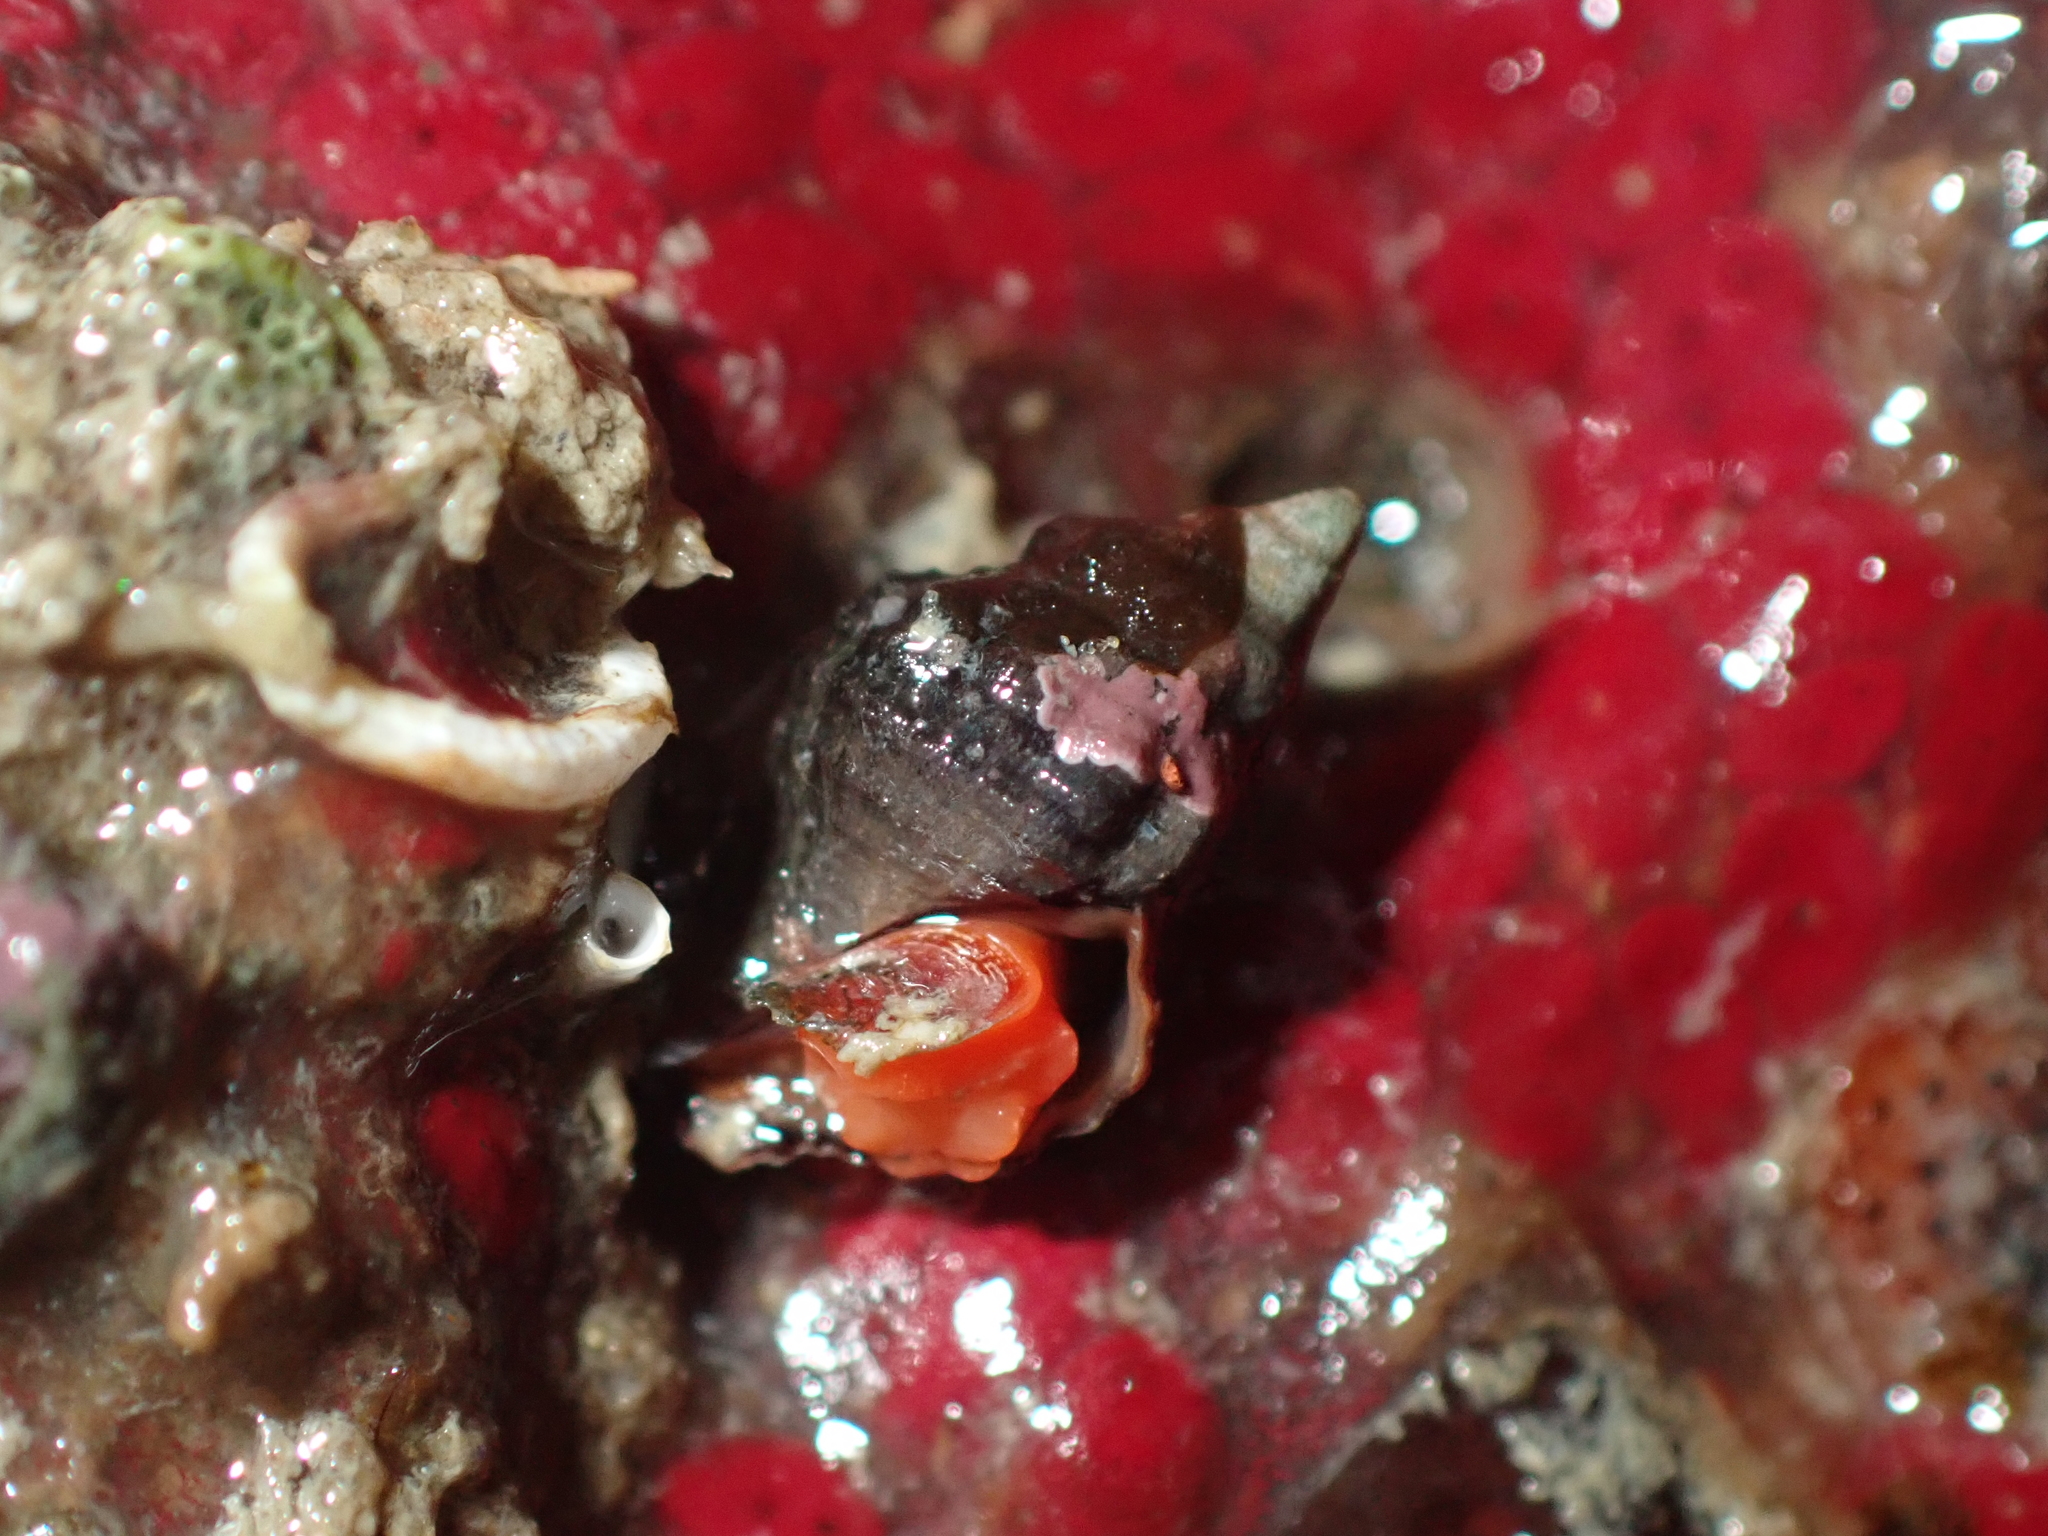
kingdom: Animalia
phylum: Mollusca
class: Gastropoda
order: Neogastropoda
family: Fasciolariidae
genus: Taron
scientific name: Taron dubius
